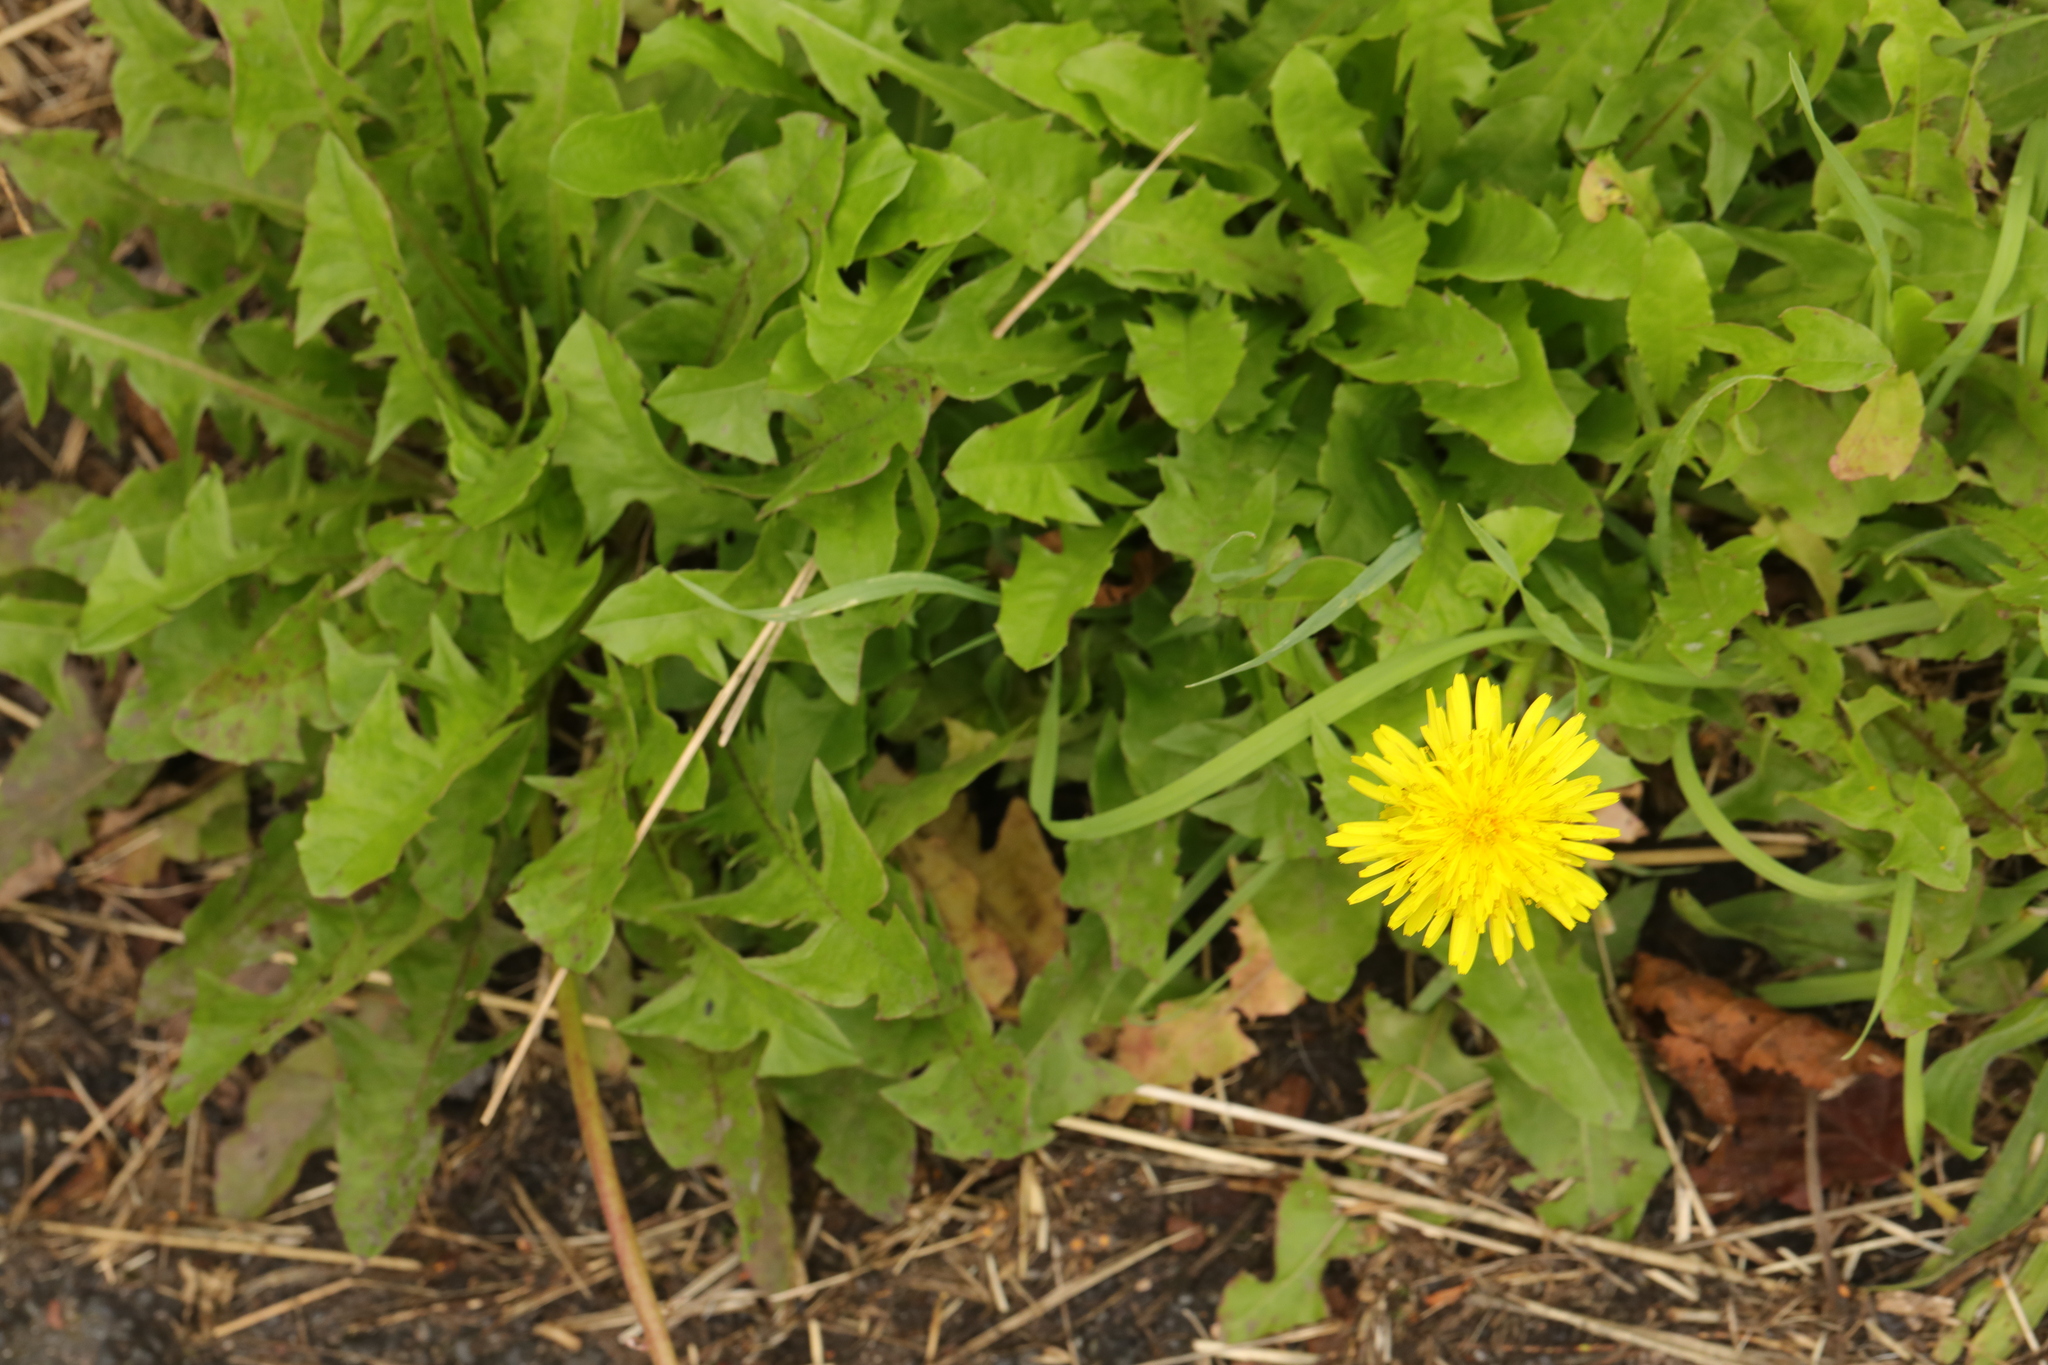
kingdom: Plantae
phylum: Tracheophyta
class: Magnoliopsida
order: Asterales
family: Asteraceae
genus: Taraxacum
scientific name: Taraxacum officinale
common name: Common dandelion
